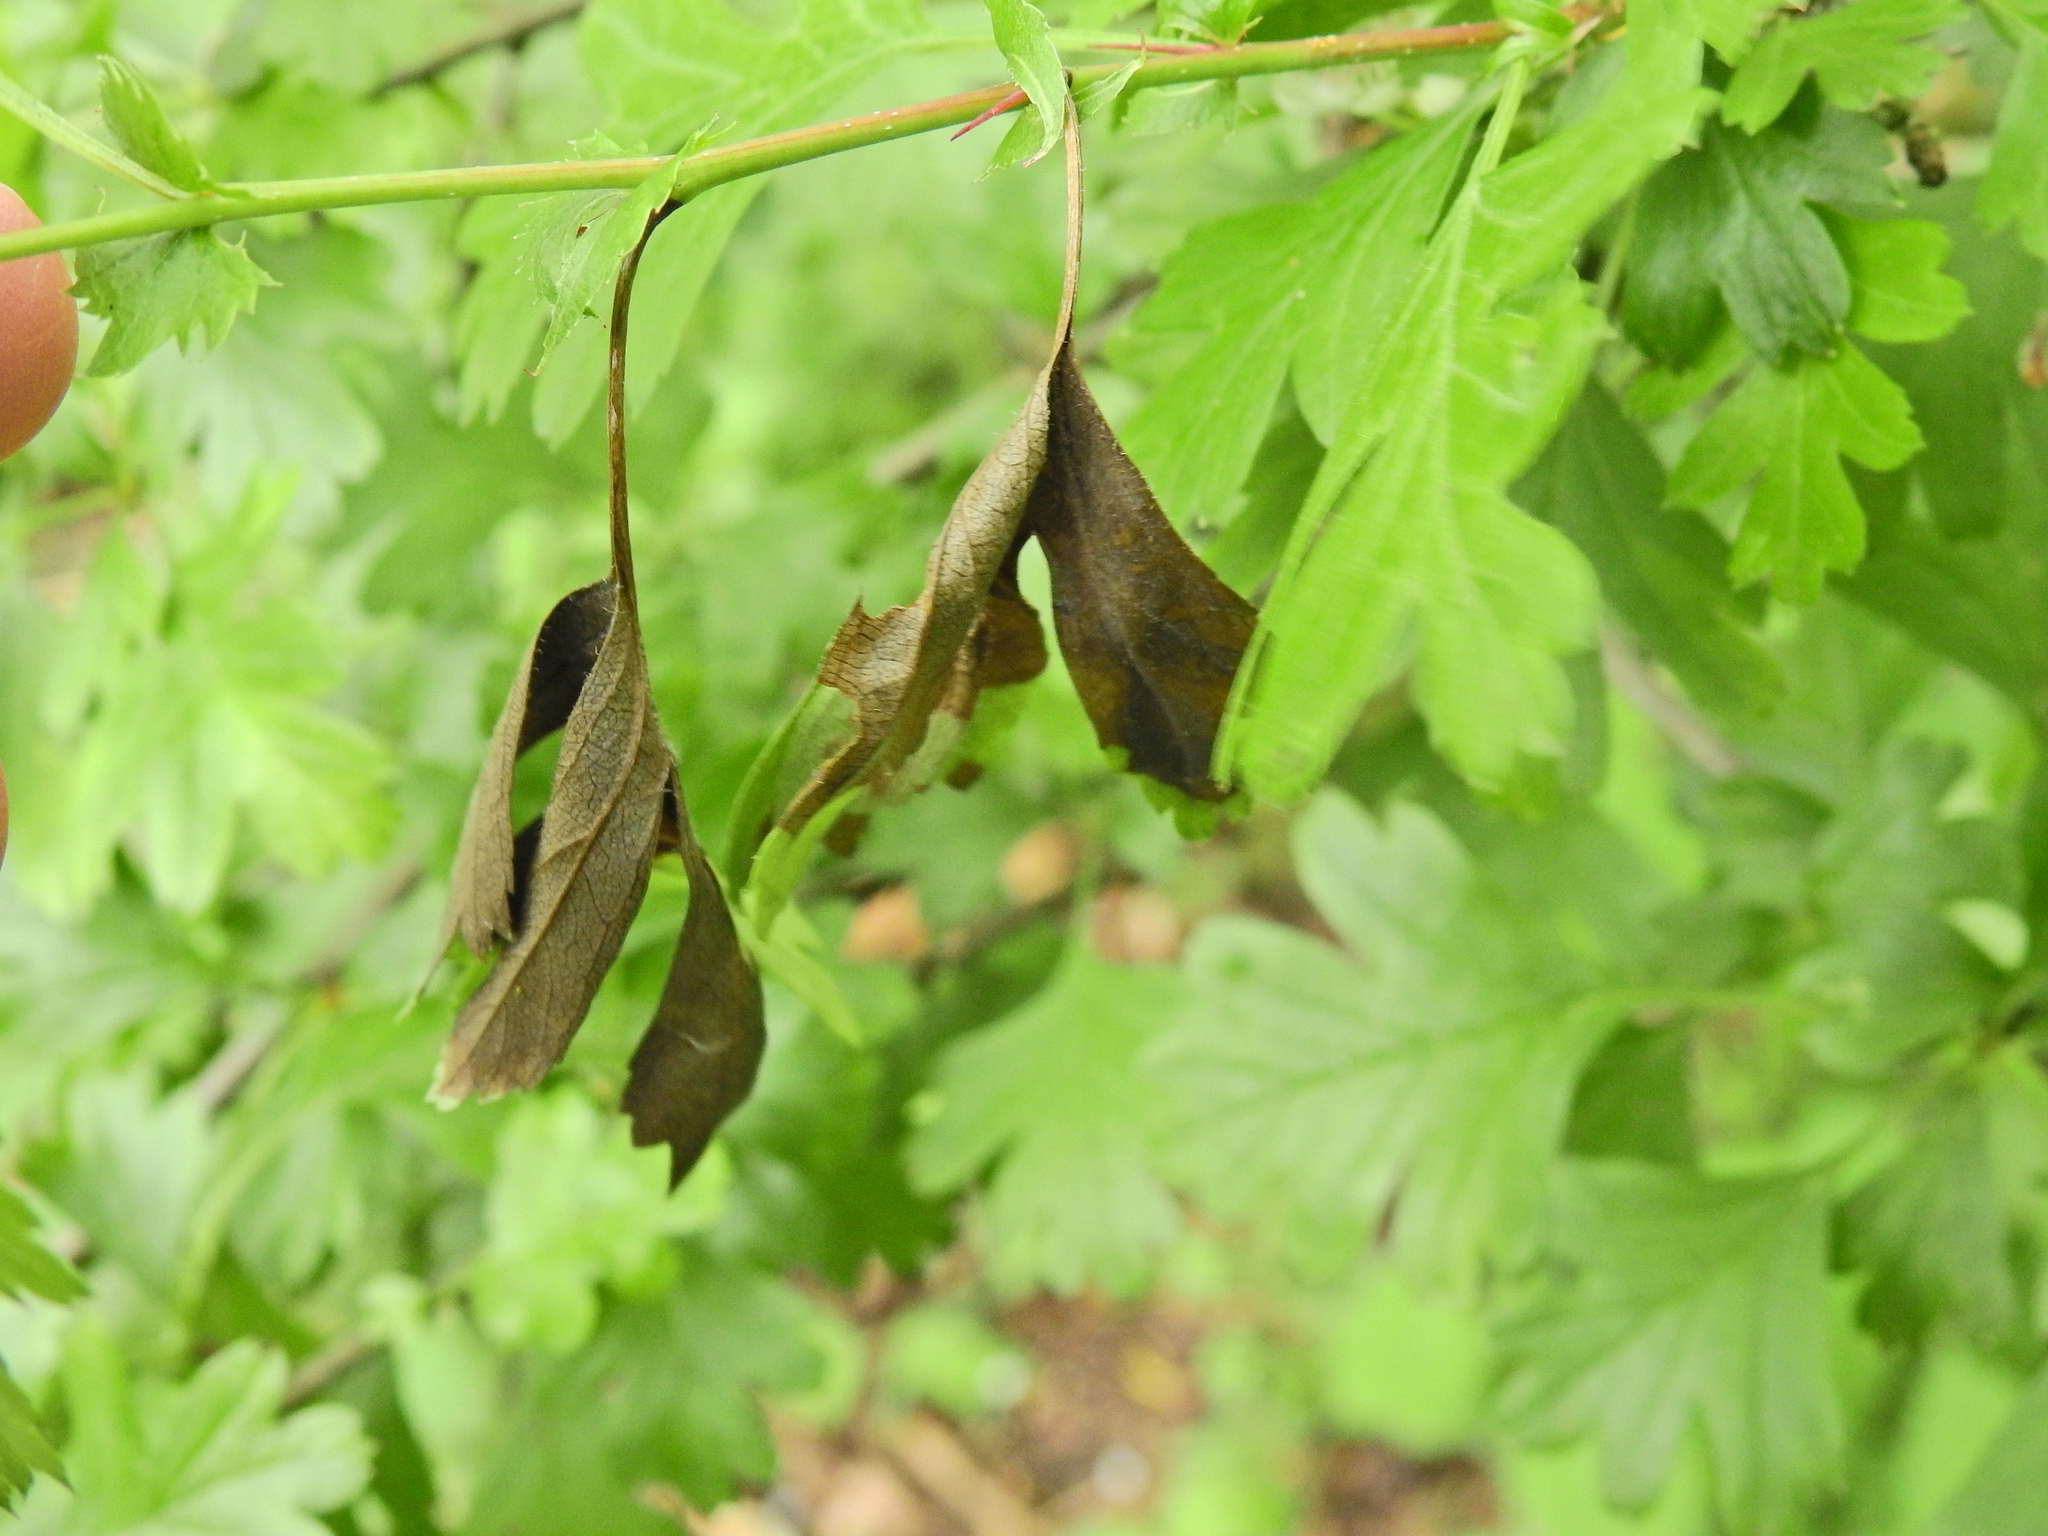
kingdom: Fungi
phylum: Ascomycota
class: Leotiomycetes
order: Helotiales
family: Sclerotiniaceae
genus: Monilinia
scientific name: Monilinia johnsonii
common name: Haw goblet
